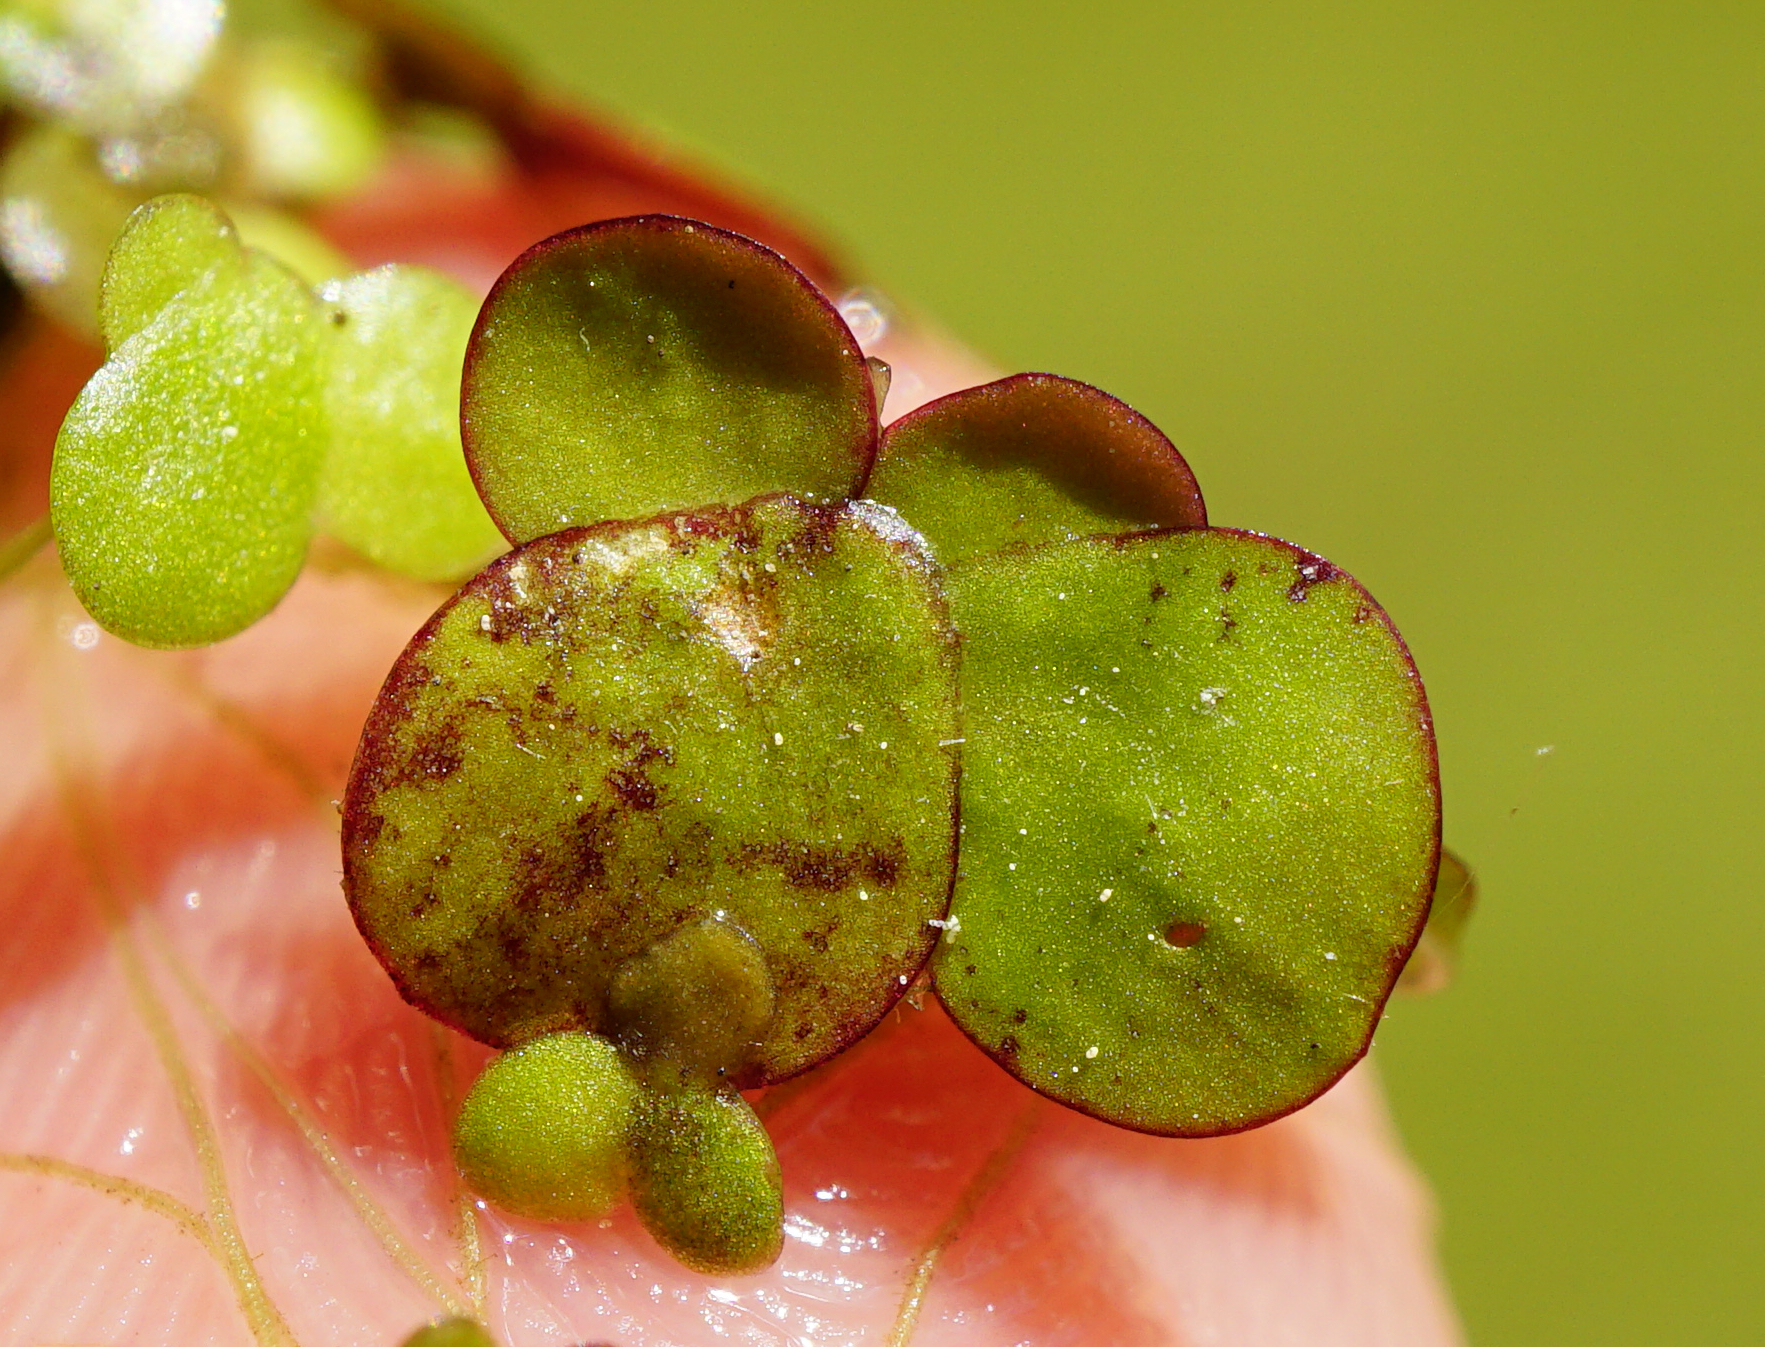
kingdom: Plantae
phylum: Tracheophyta
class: Liliopsida
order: Alismatales
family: Araceae
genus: Spirodela
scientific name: Spirodela polyrhiza
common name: Great duckweed
